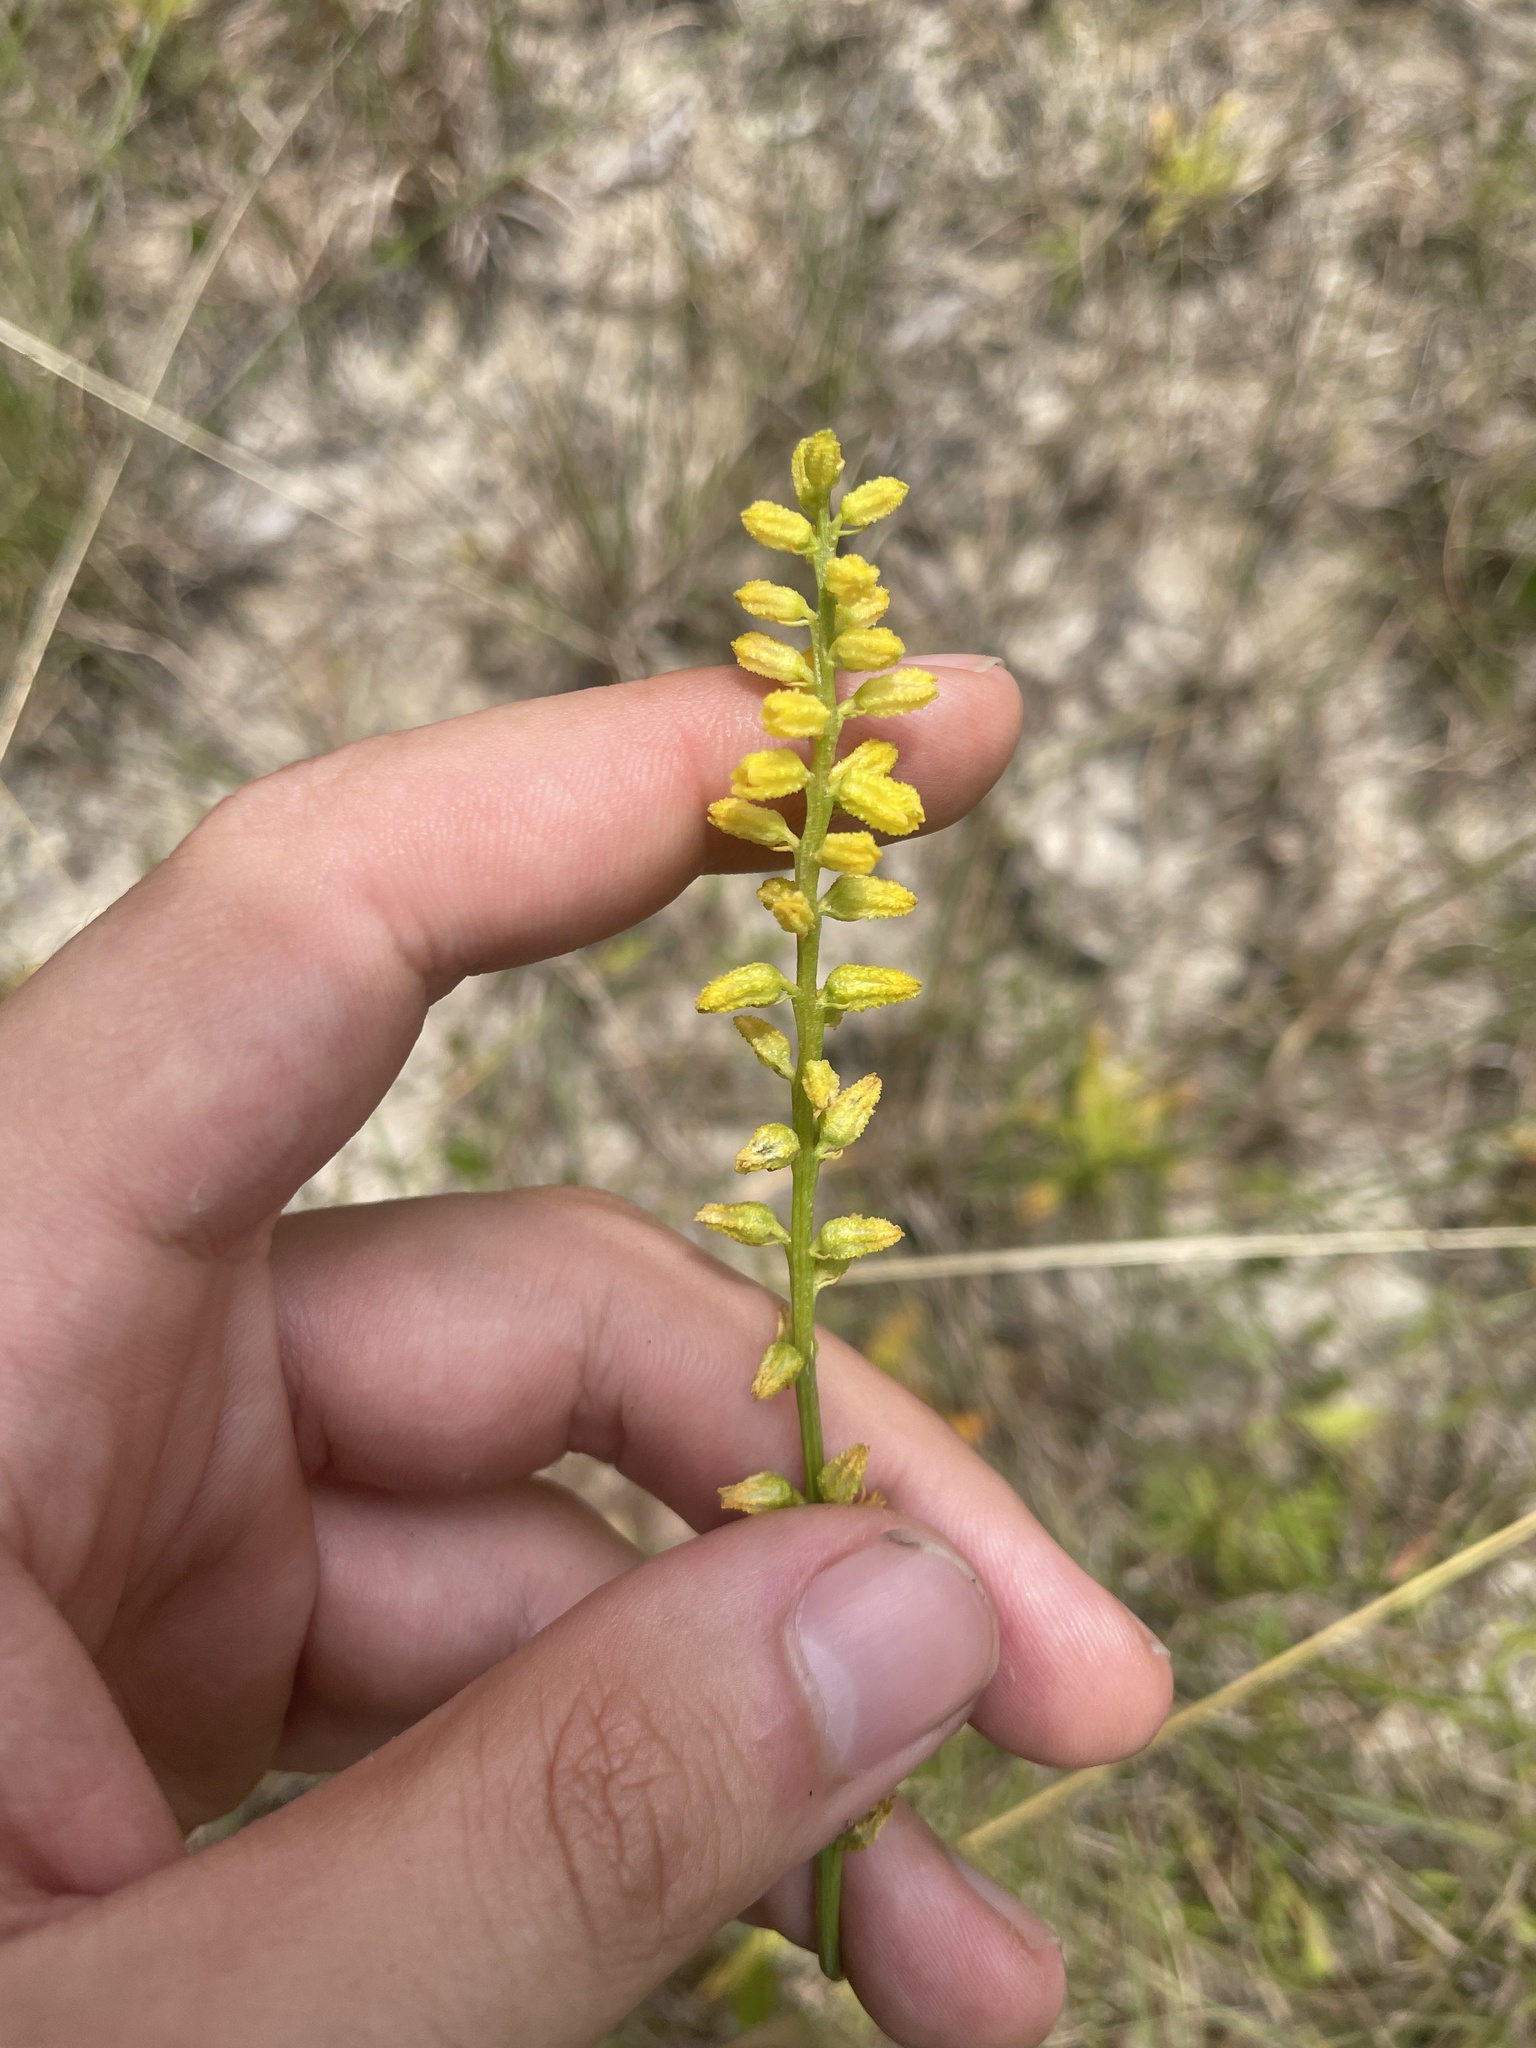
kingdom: Plantae
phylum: Tracheophyta
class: Liliopsida
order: Dioscoreales
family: Nartheciaceae
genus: Aletris
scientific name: Aletris aurea
